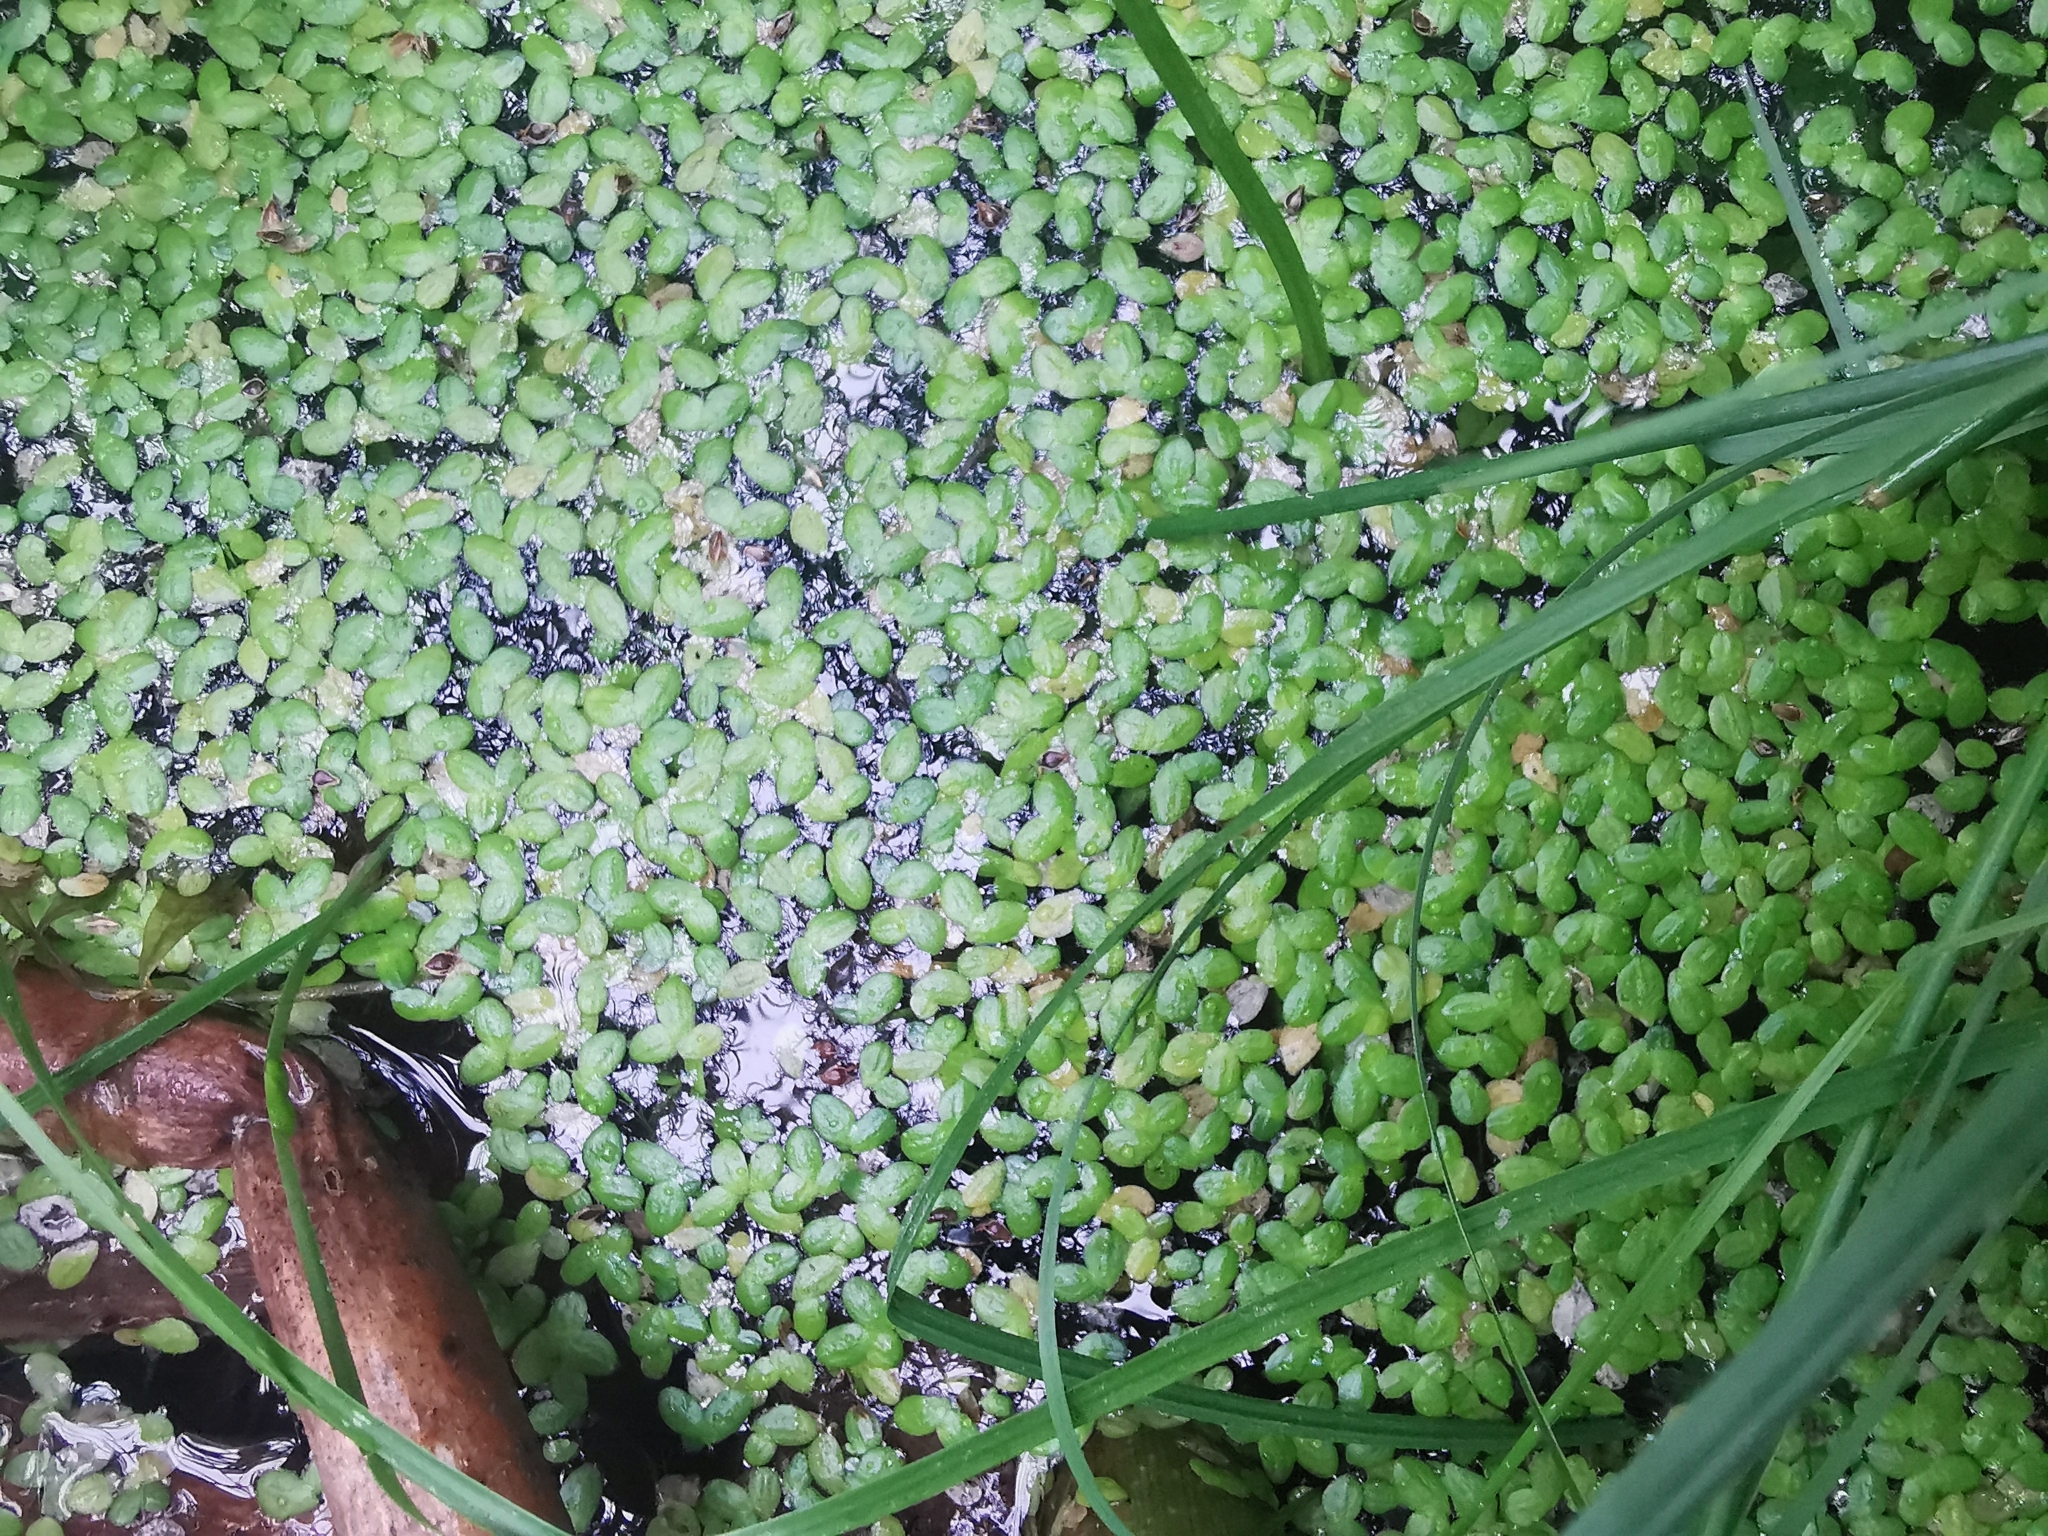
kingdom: Plantae
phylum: Tracheophyta
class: Liliopsida
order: Alismatales
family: Araceae
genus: Lemna
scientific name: Lemna turionifera
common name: Perennial duckweed
